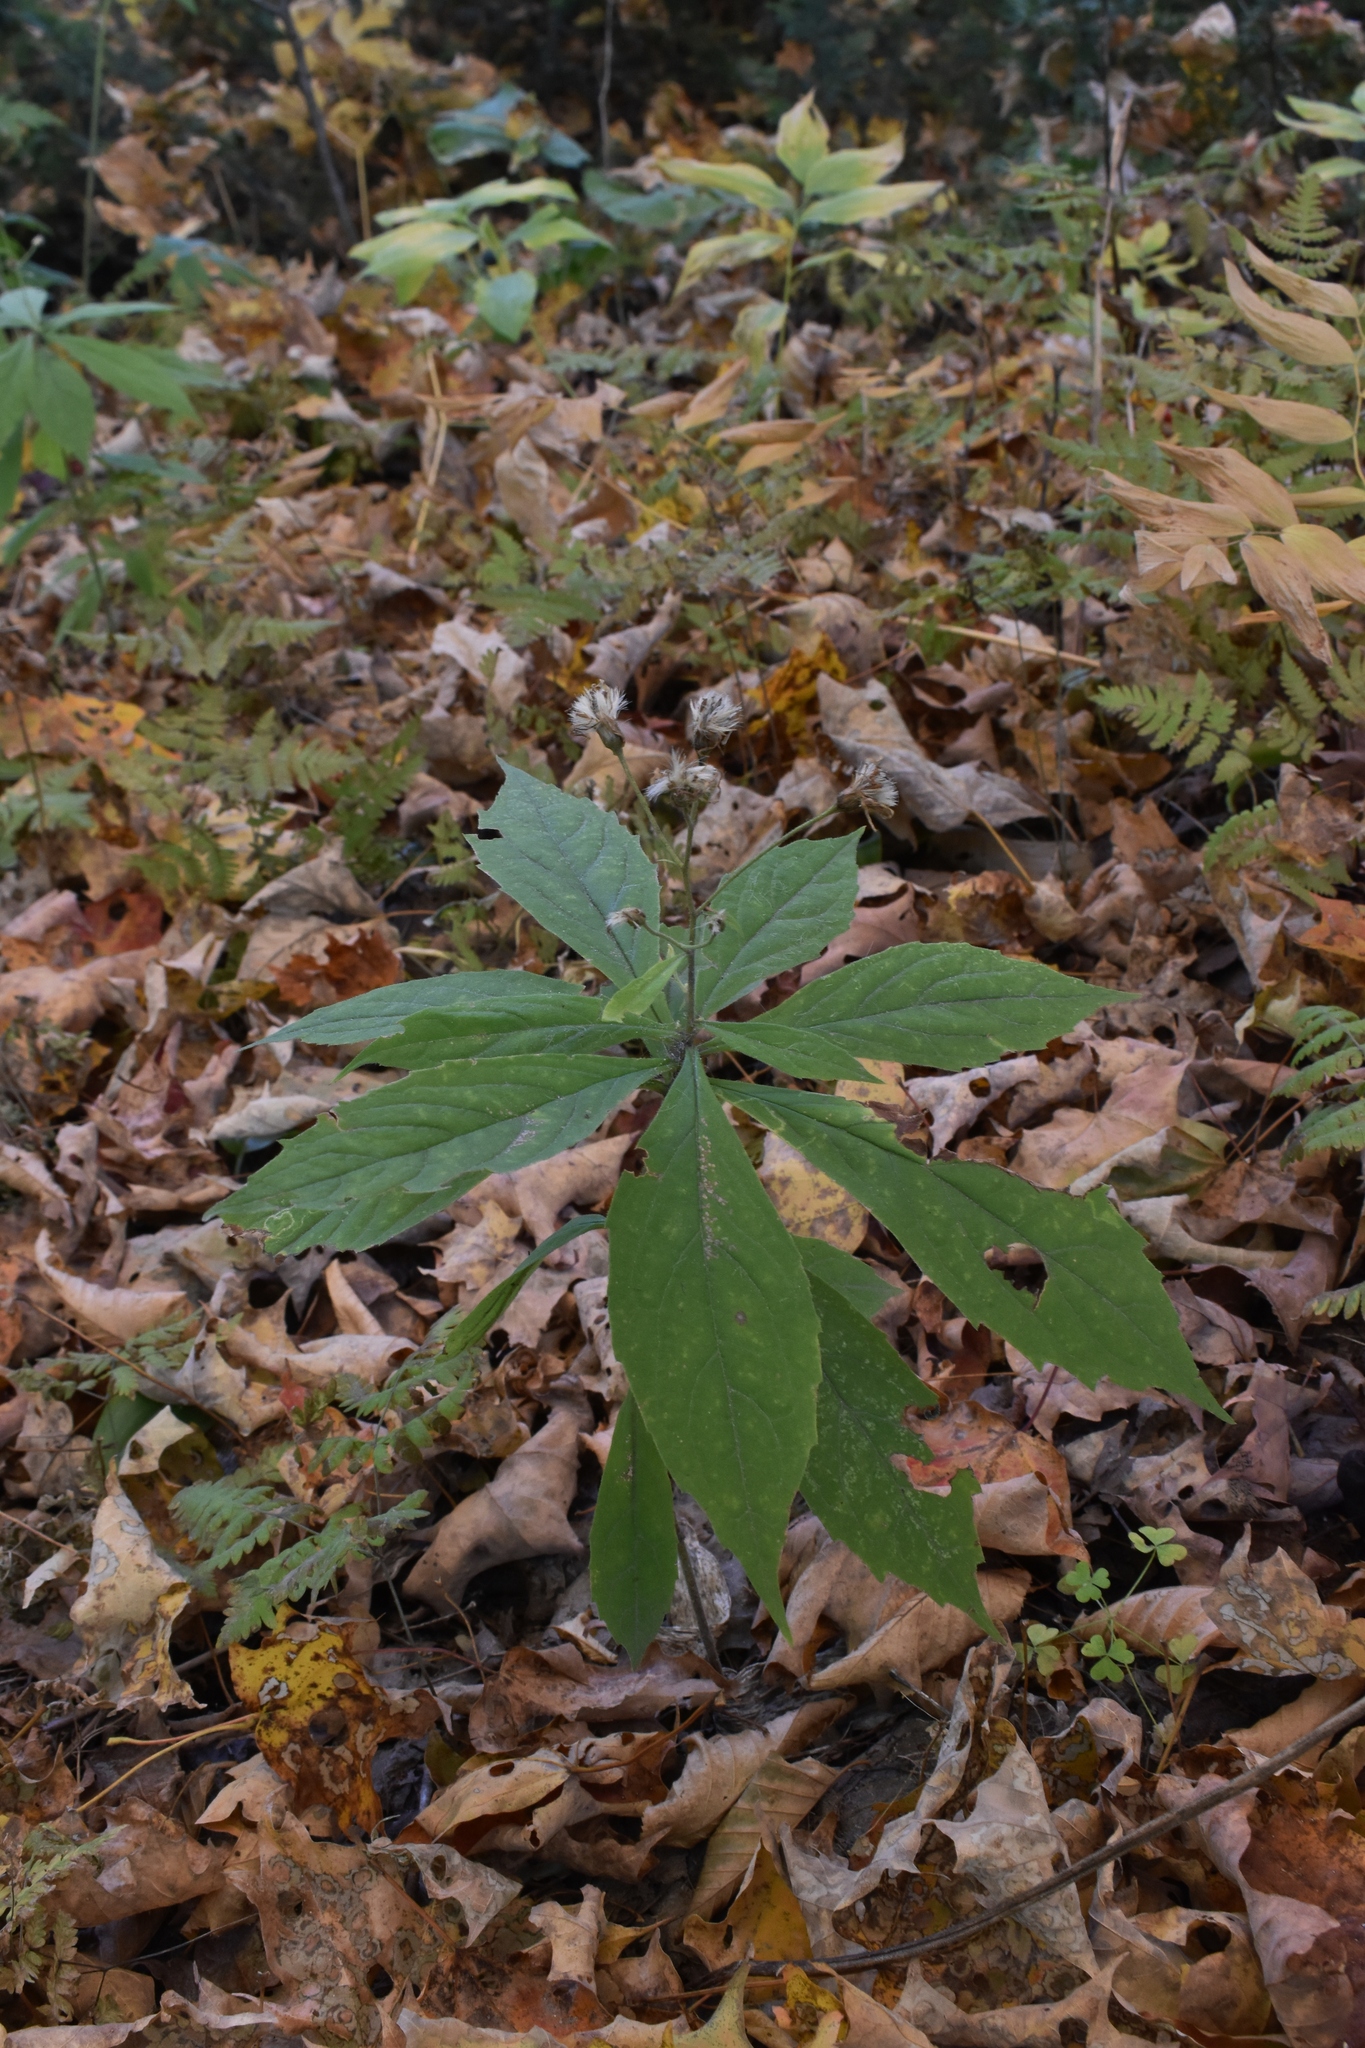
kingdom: Plantae
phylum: Tracheophyta
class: Magnoliopsida
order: Asterales
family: Asteraceae
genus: Oclemena
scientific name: Oclemena acuminata
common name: Mountain aster
